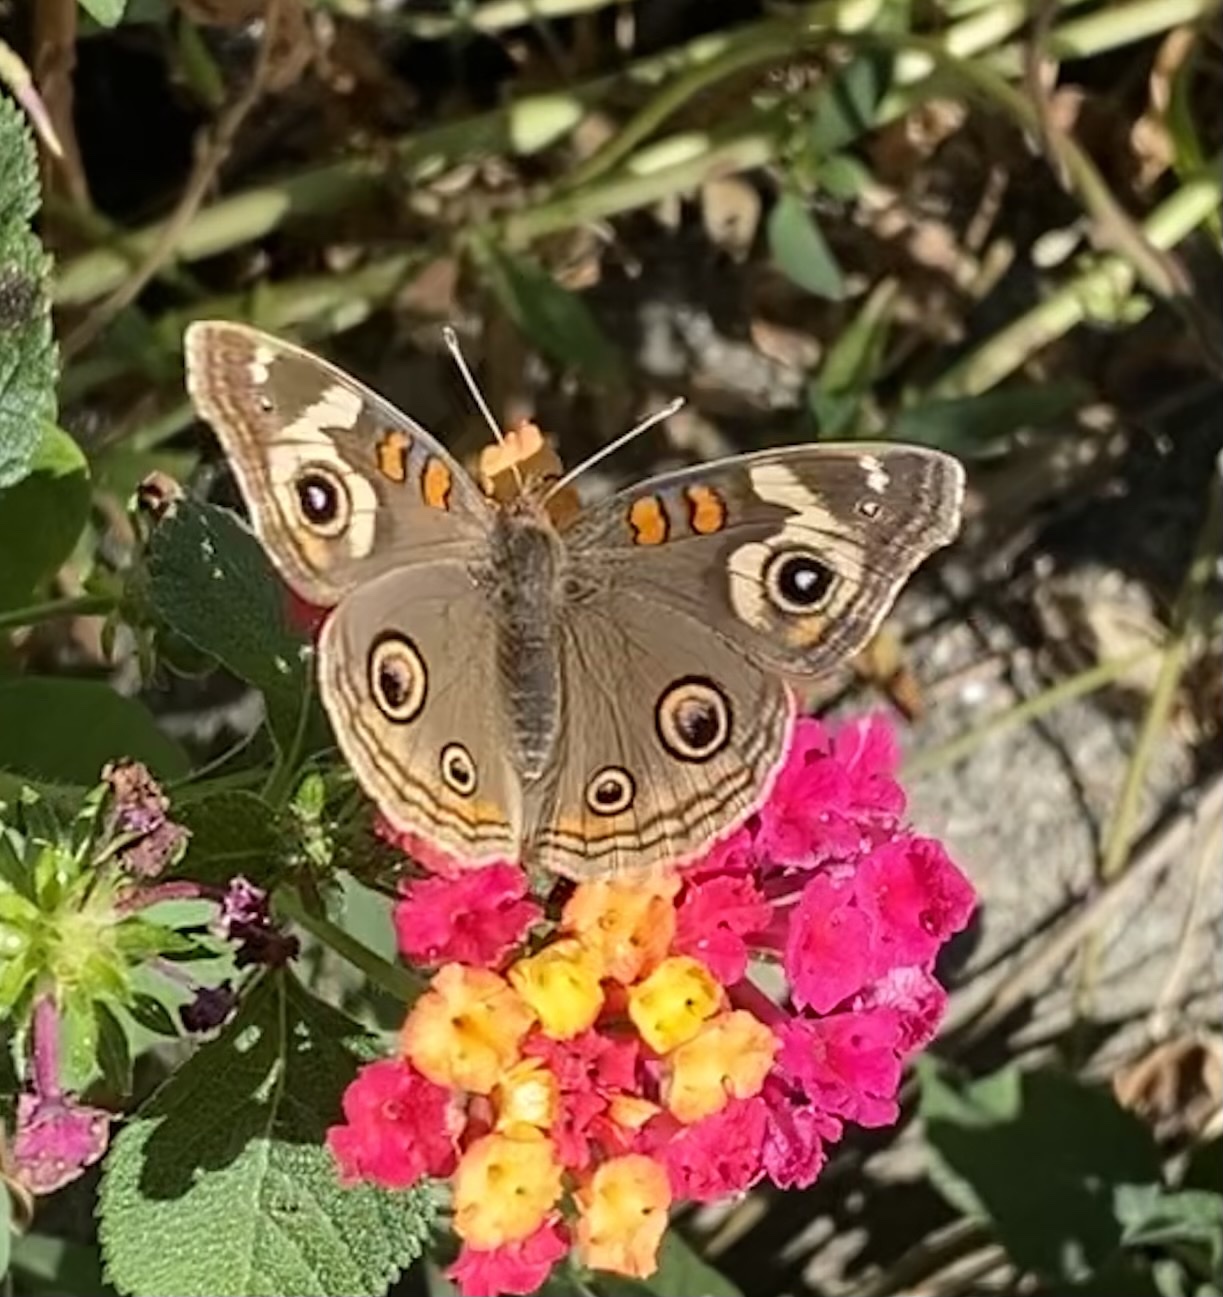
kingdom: Animalia
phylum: Arthropoda
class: Insecta
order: Lepidoptera
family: Nymphalidae
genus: Junonia
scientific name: Junonia grisea
